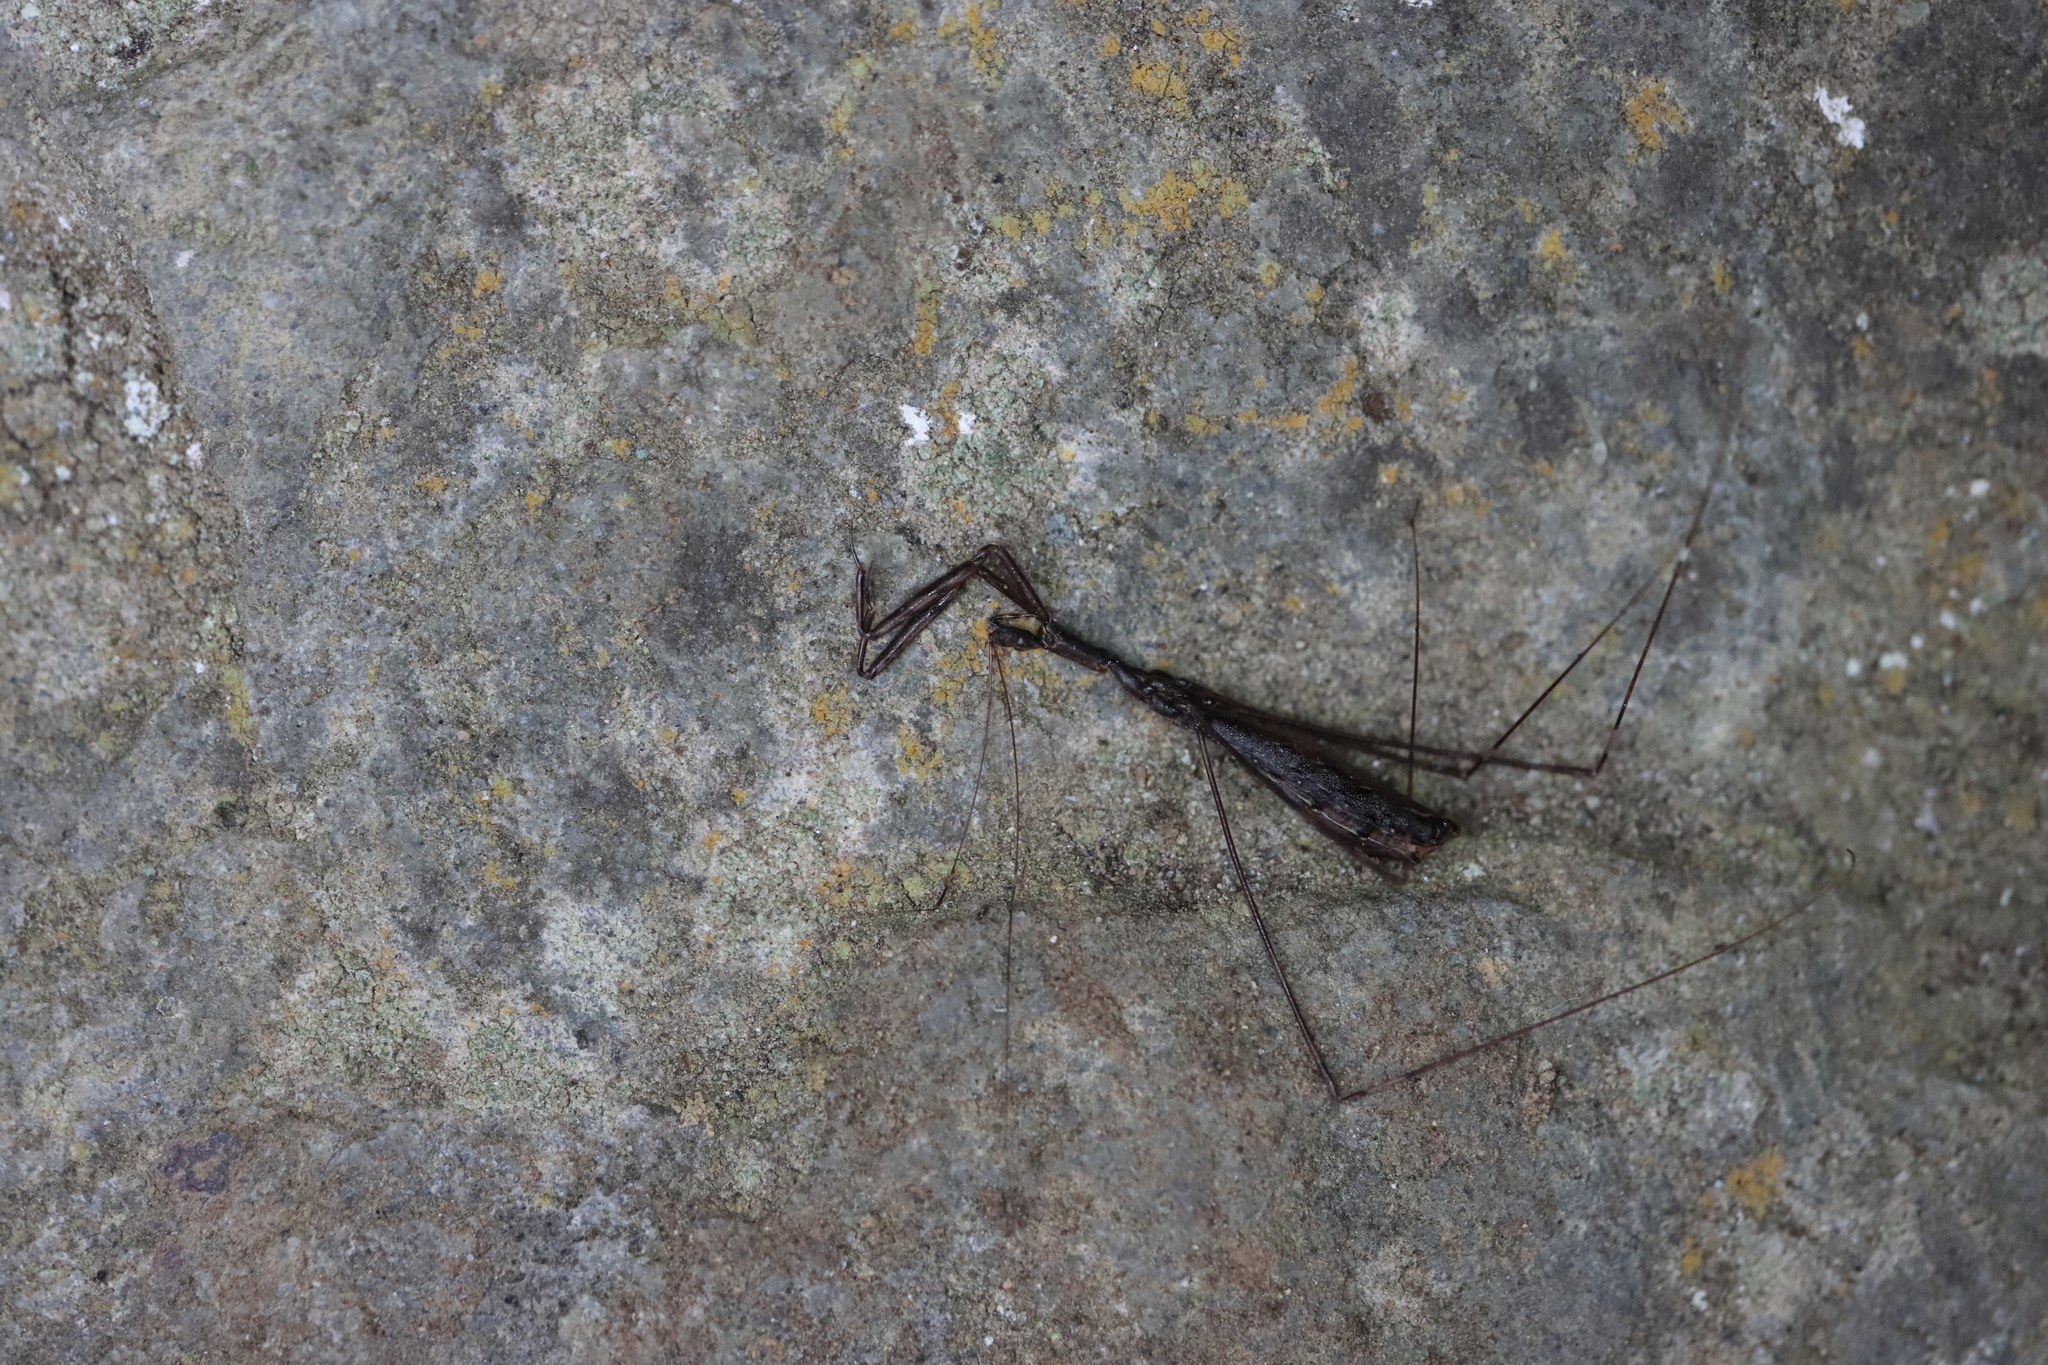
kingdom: Animalia
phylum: Arthropoda
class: Insecta
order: Hemiptera
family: Reduviidae
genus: Ploiaria
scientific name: Ploiaria antipodum
